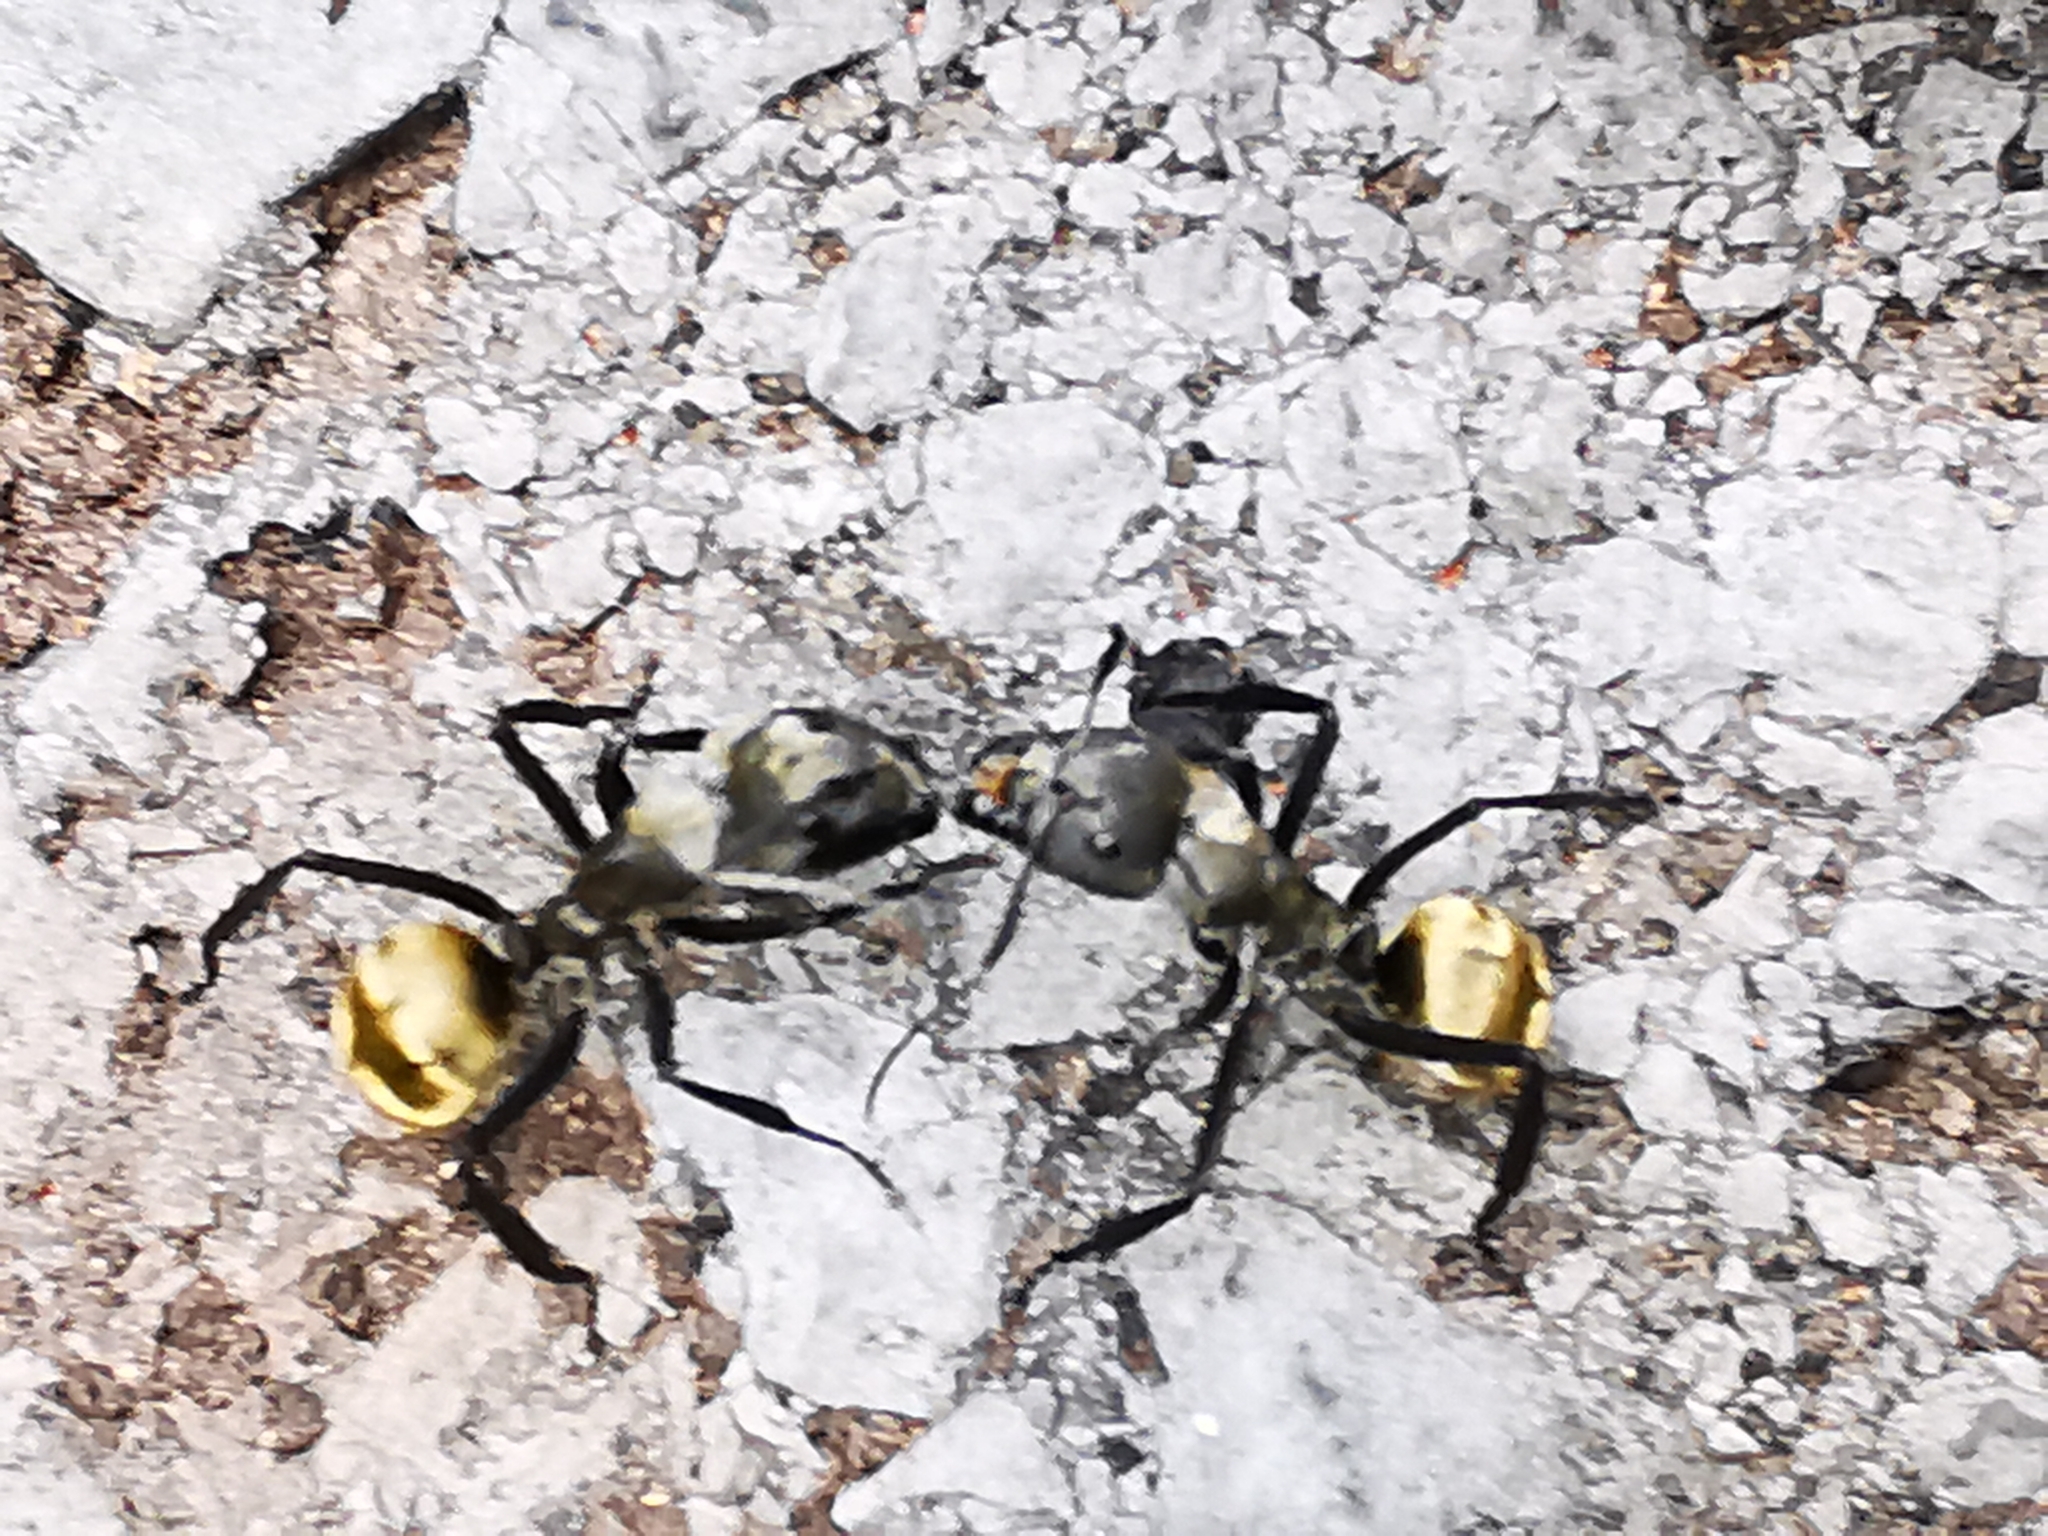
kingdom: Animalia
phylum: Arthropoda
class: Insecta
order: Hymenoptera
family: Formicidae
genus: Camponotus
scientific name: Camponotus sericeiventris
